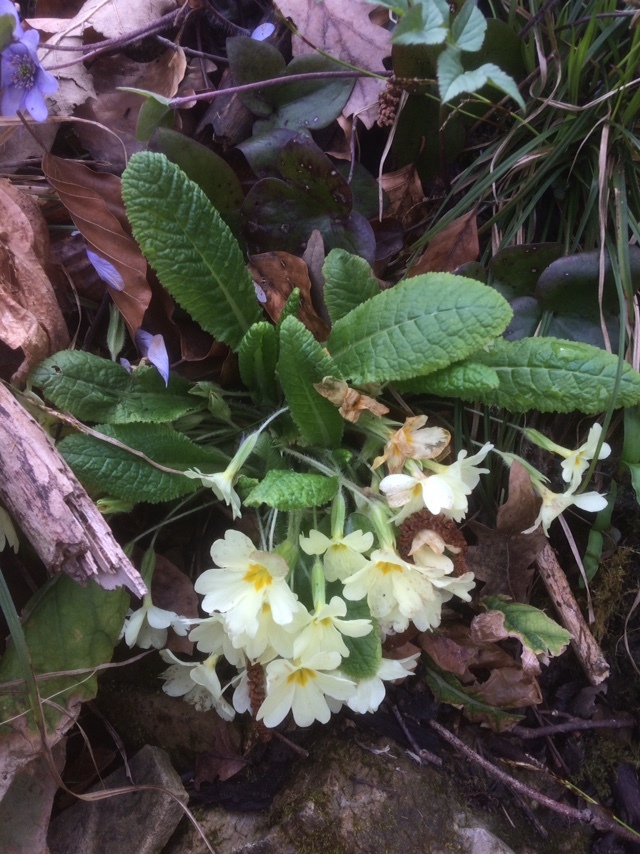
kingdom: Plantae
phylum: Tracheophyta
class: Magnoliopsida
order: Ericales
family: Primulaceae
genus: Primula
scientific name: Primula vulgaris
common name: Primrose
